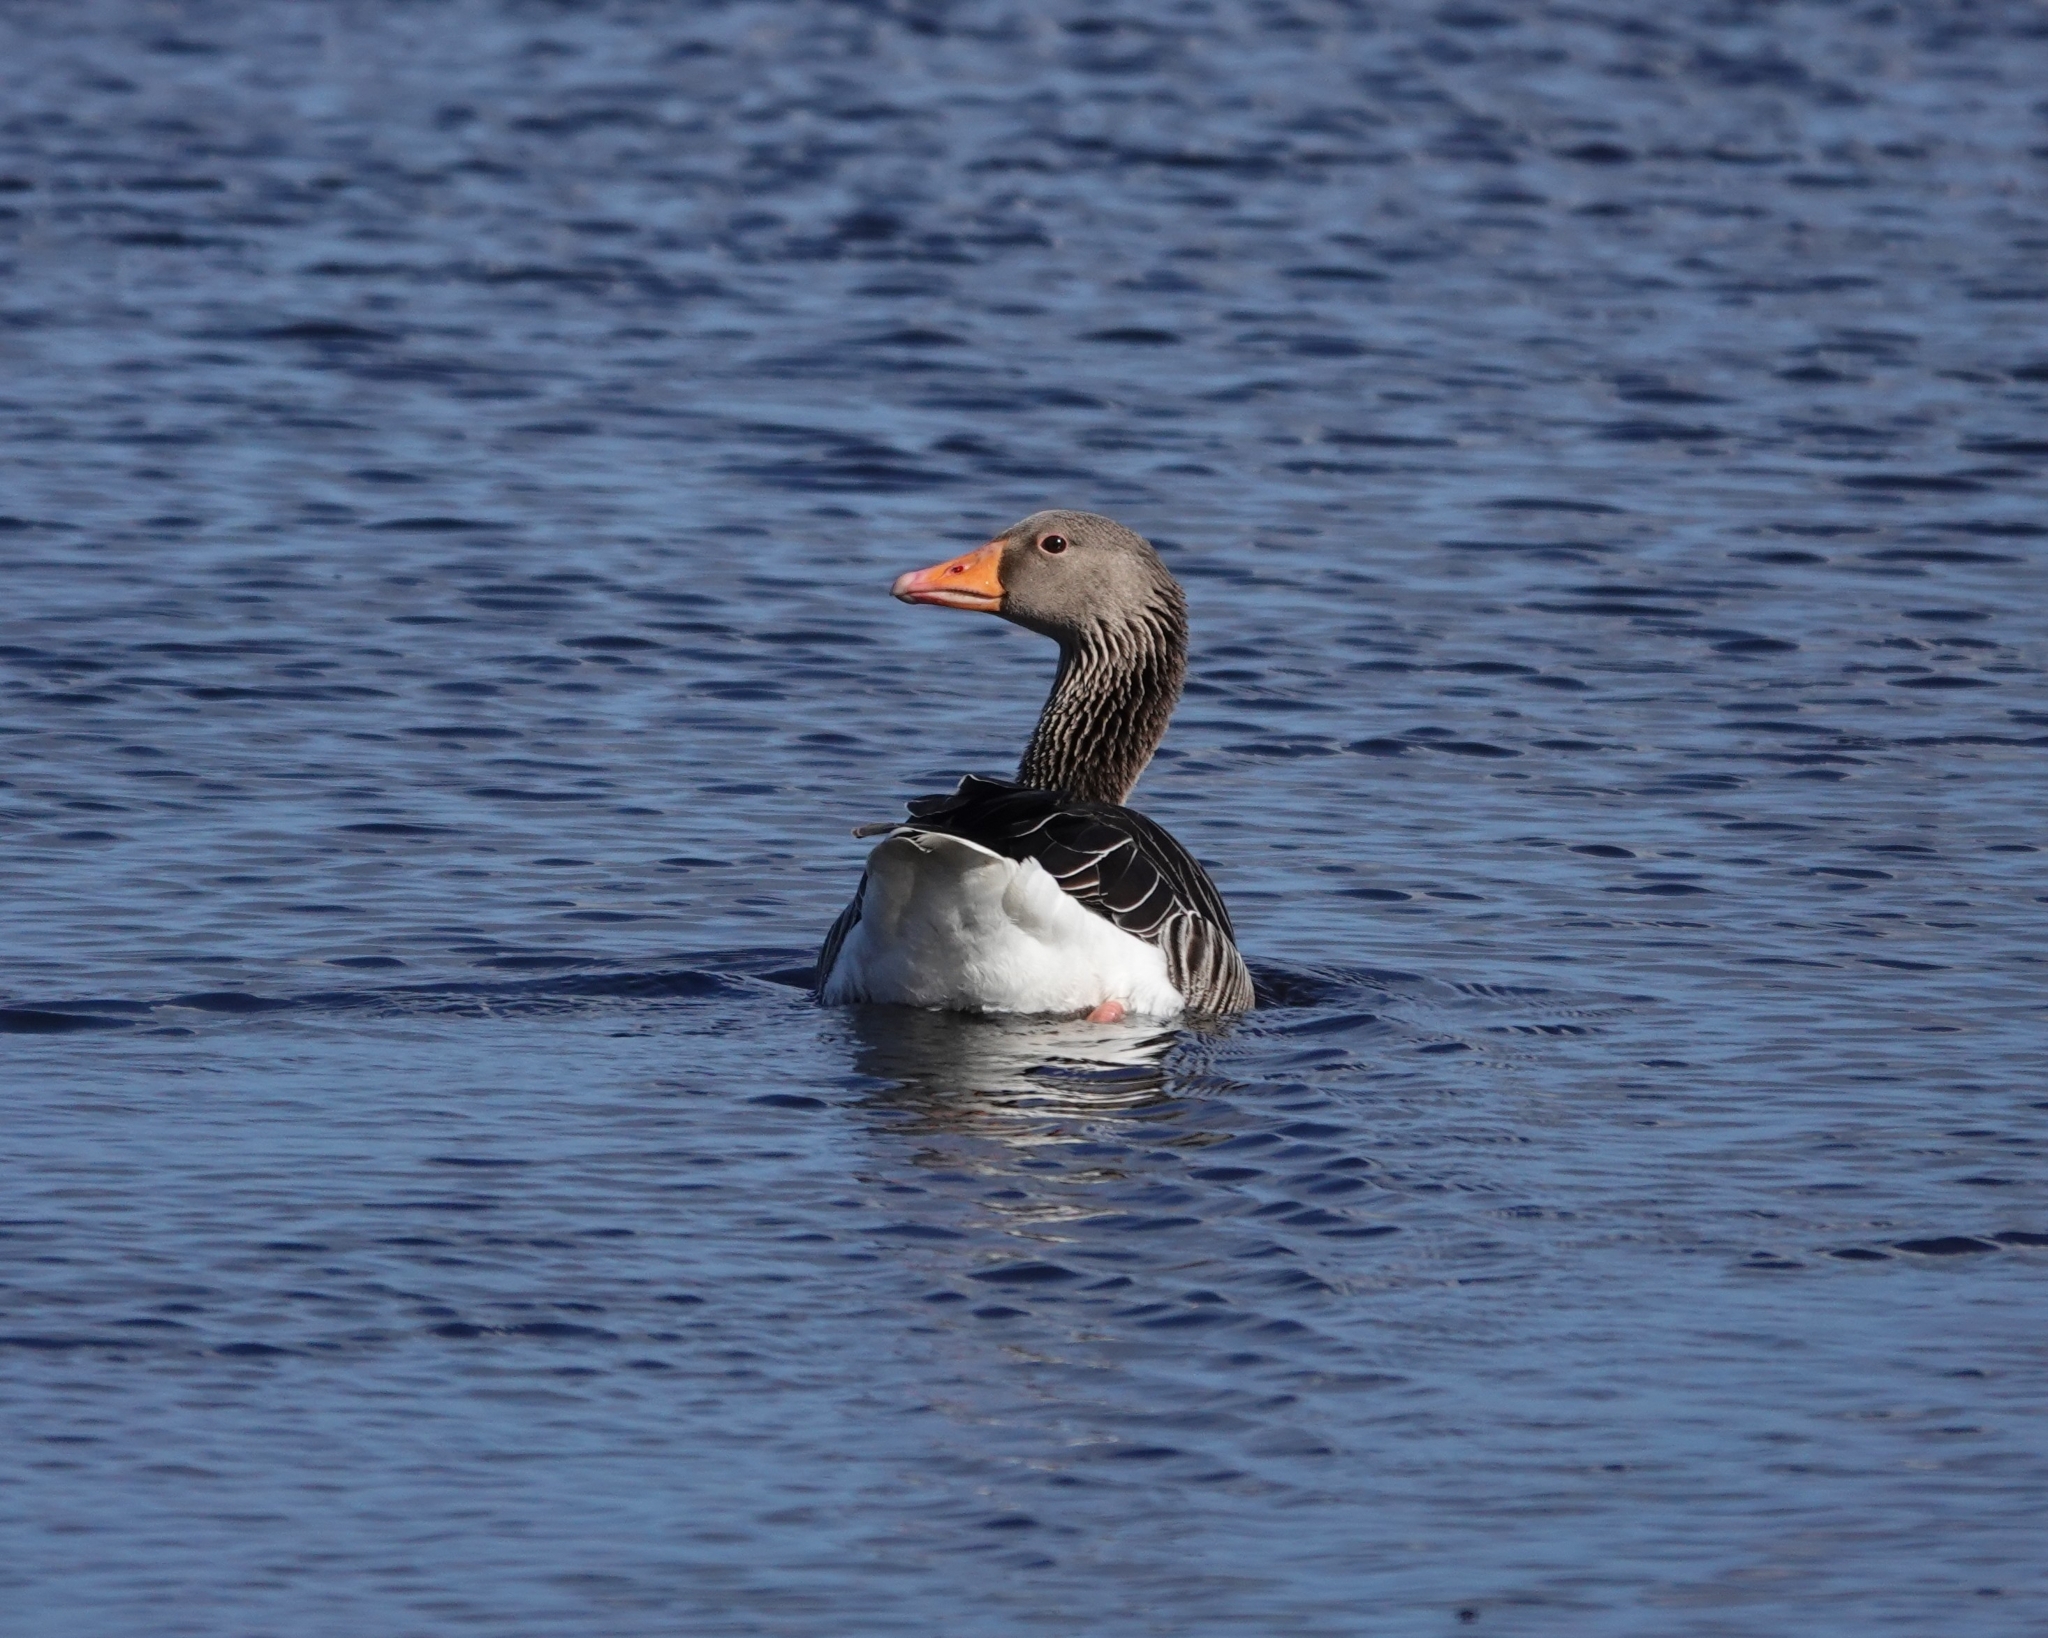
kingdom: Animalia
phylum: Chordata
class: Aves
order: Anseriformes
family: Anatidae
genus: Anser
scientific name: Anser anser
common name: Greylag goose
